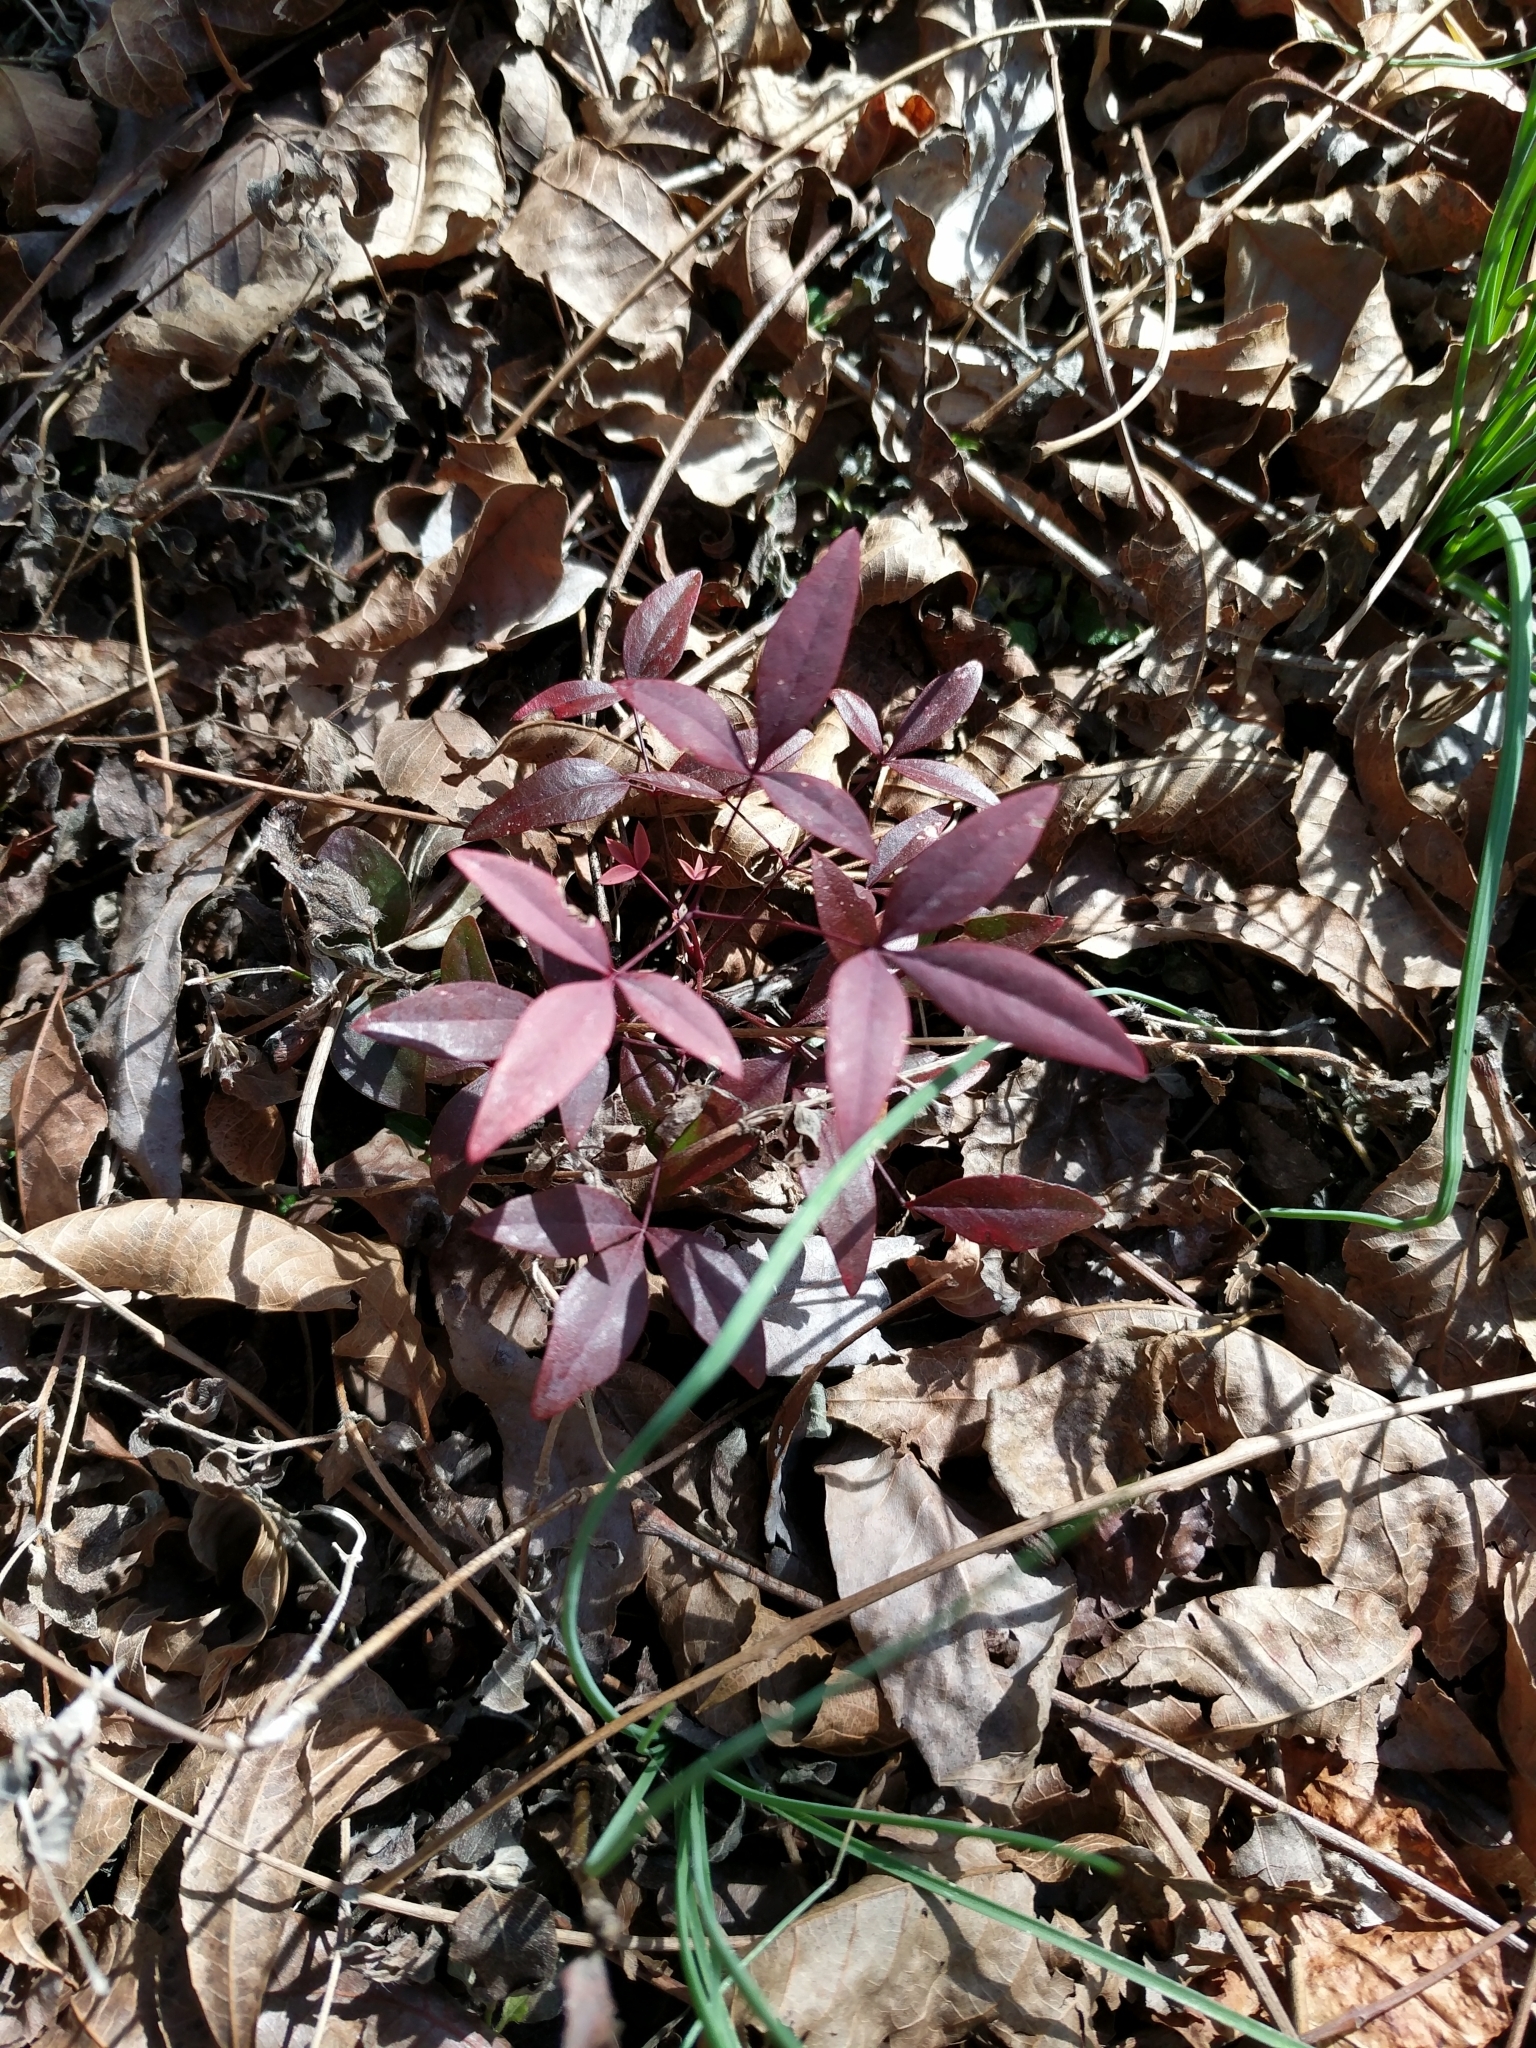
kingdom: Plantae
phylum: Tracheophyta
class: Magnoliopsida
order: Ranunculales
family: Berberidaceae
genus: Nandina
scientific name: Nandina domestica
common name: Sacred bamboo
